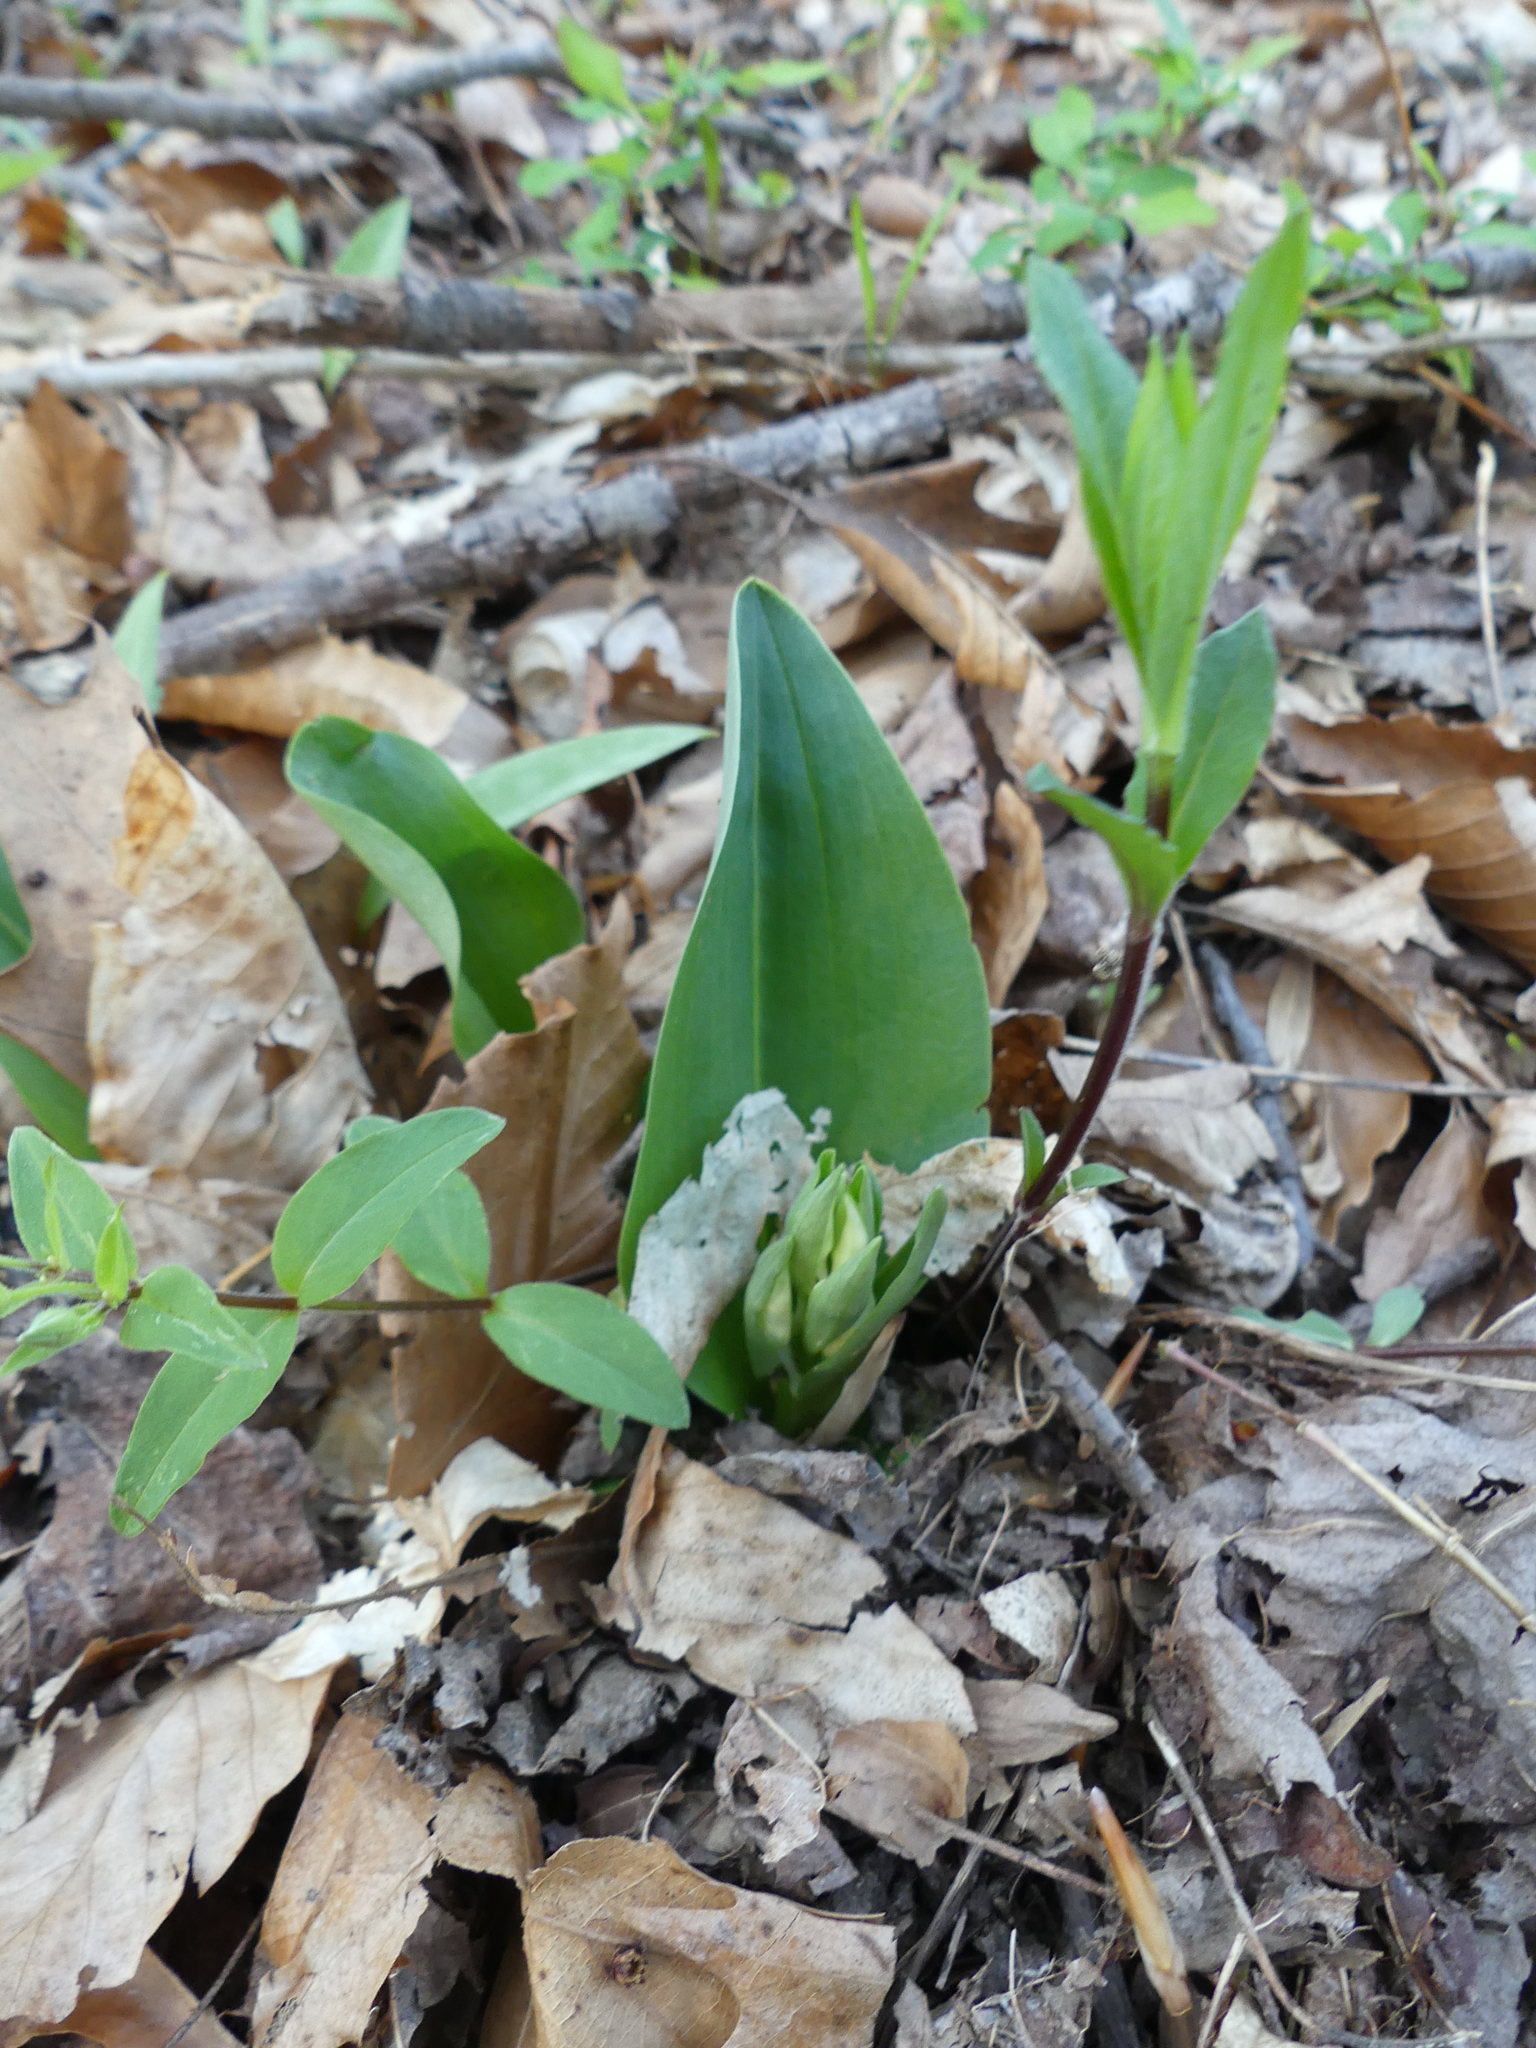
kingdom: Plantae
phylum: Tracheophyta
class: Liliopsida
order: Asparagales
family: Orchidaceae
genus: Galearis
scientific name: Galearis spectabilis
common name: Purple-hooded orchis
